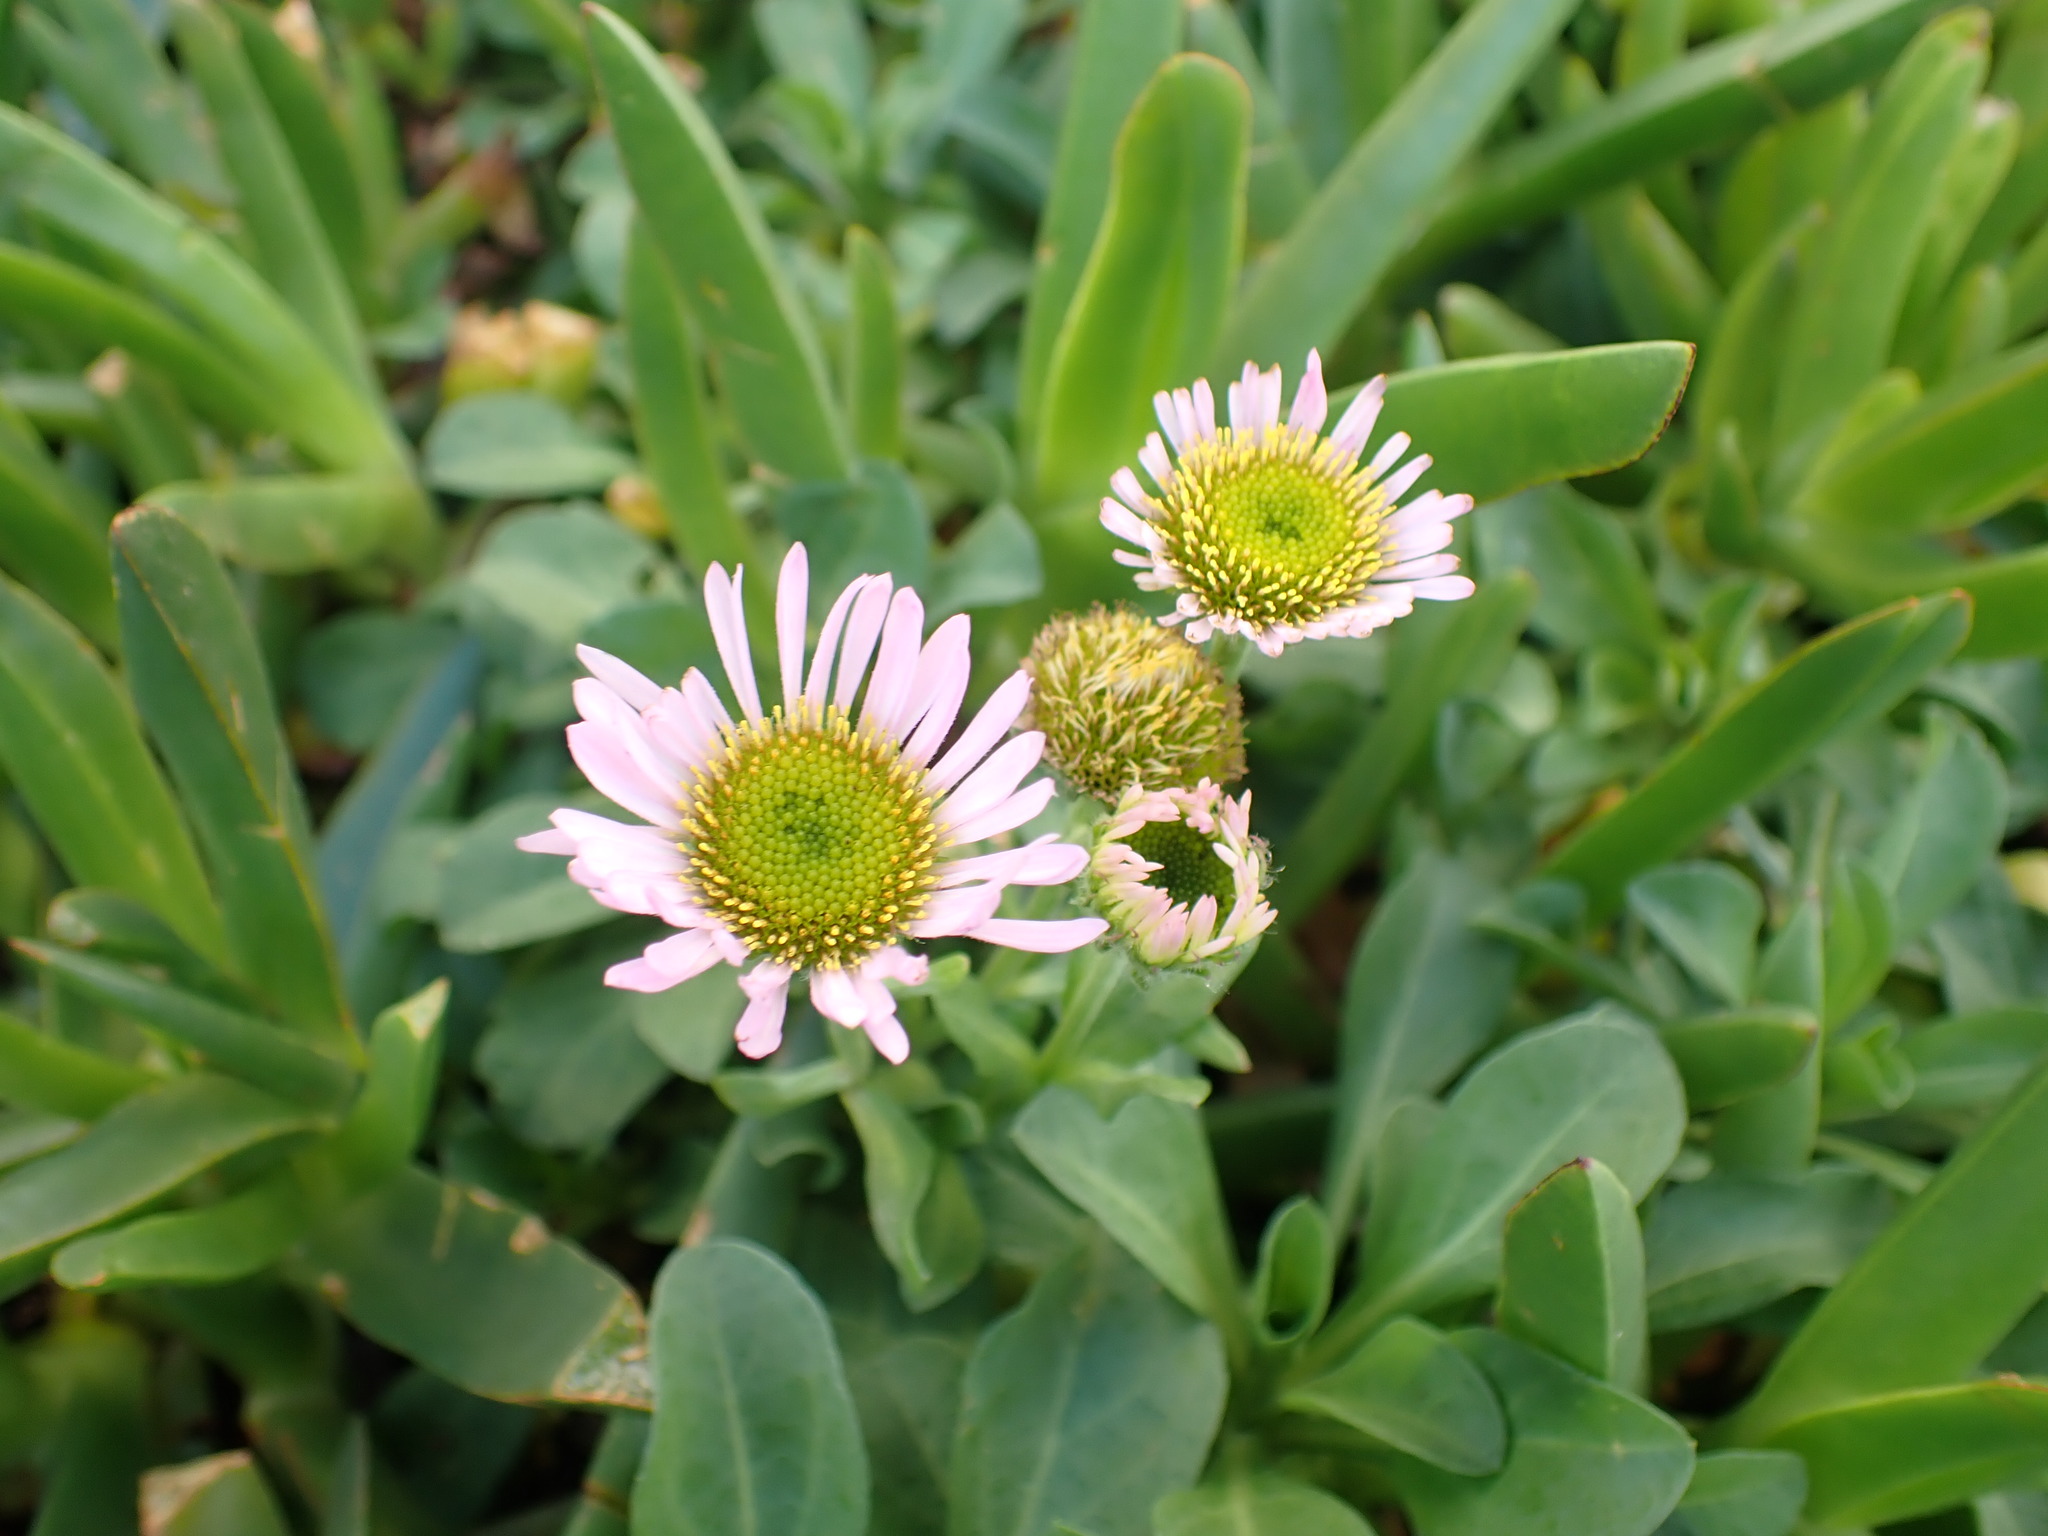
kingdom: Plantae
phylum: Tracheophyta
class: Magnoliopsida
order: Asterales
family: Asteraceae
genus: Erigeron
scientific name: Erigeron glaucus
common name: Seaside daisy
